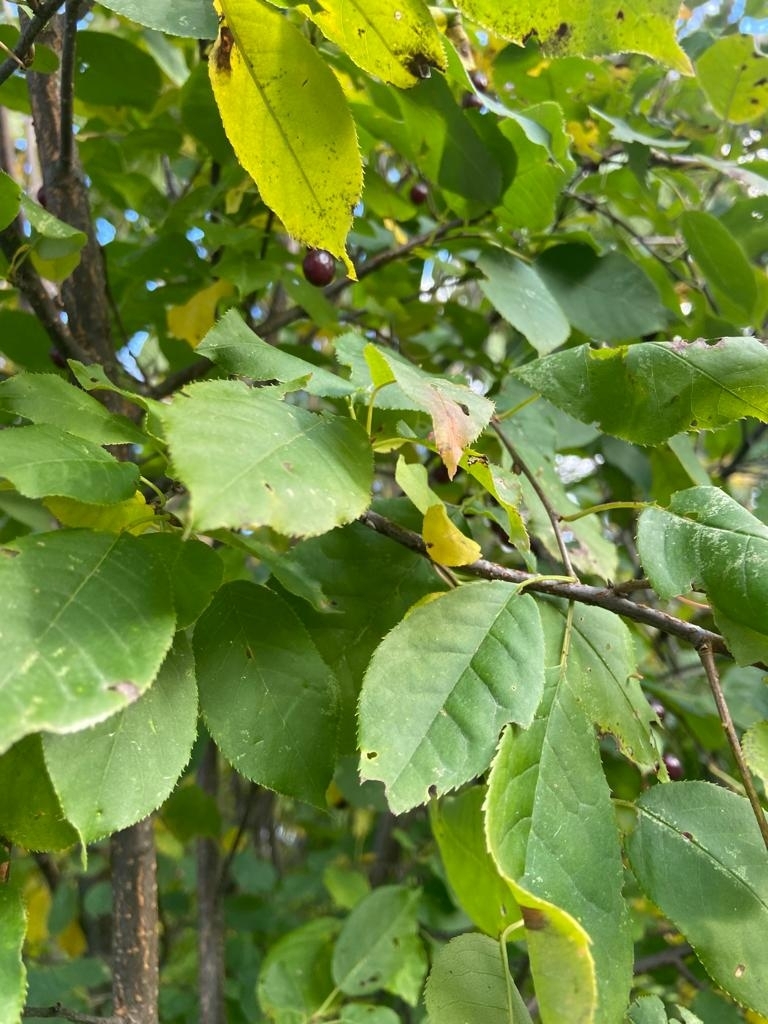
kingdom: Plantae
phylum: Tracheophyta
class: Magnoliopsida
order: Rosales
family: Rosaceae
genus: Prunus
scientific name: Prunus virginiana
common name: Chokecherry
